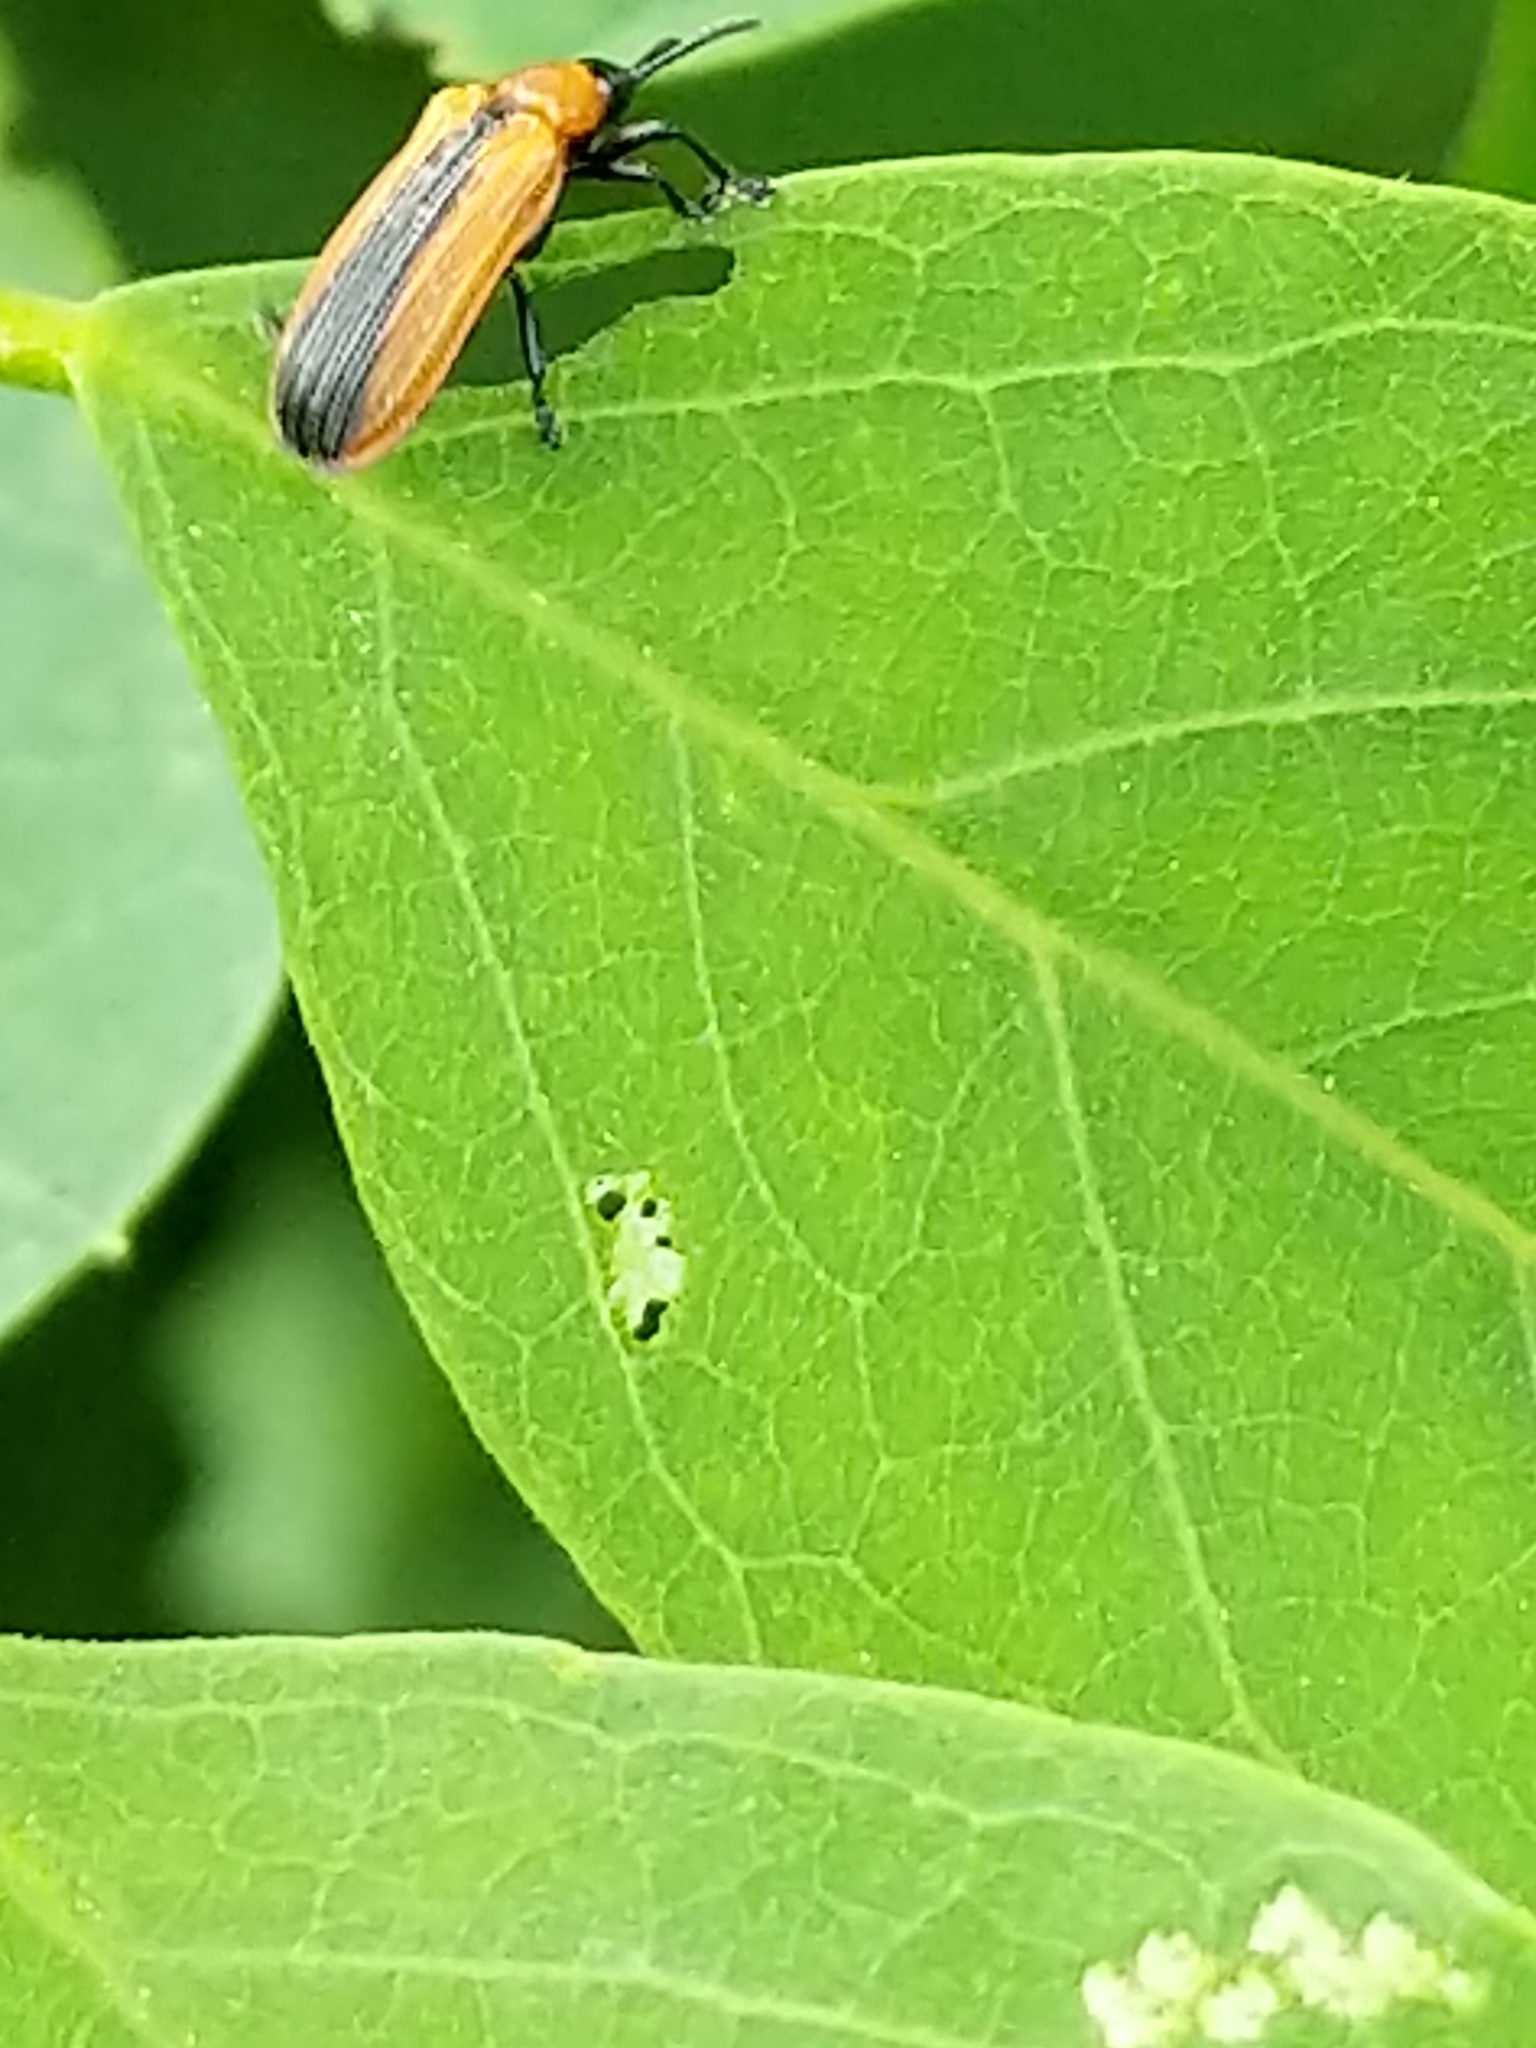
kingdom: Animalia
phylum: Arthropoda
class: Insecta
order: Coleoptera
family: Chrysomelidae
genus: Odontota
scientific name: Odontota dorsalis
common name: Locust leaf-miner beetle
